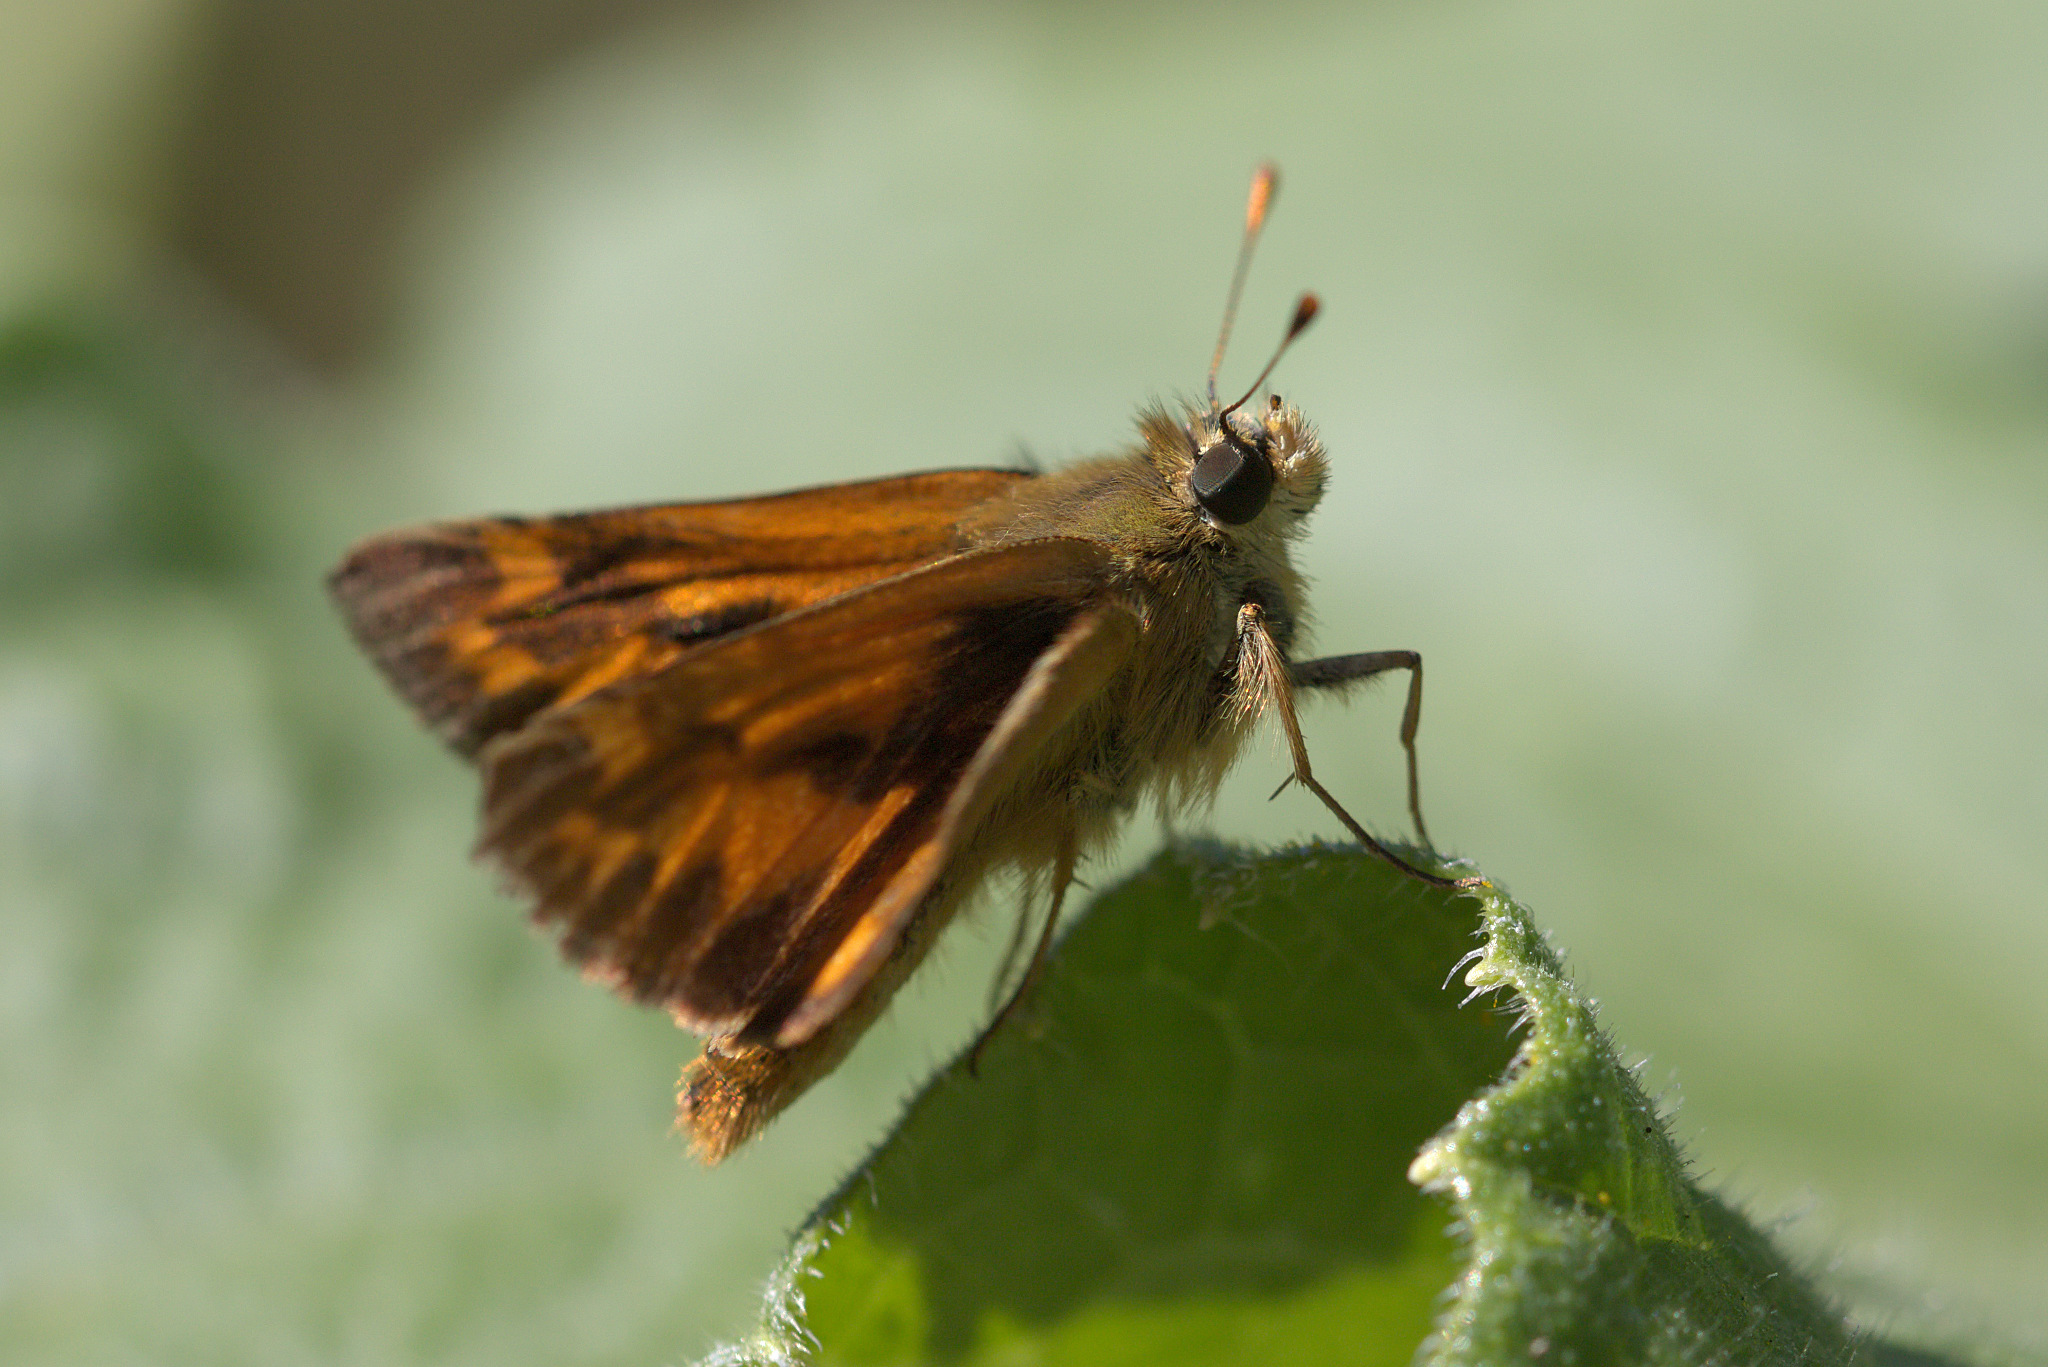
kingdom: Animalia
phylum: Arthropoda
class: Insecta
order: Lepidoptera
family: Hesperiidae
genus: Ochlodes
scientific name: Ochlodes sylvanoides
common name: Woodland skipper
